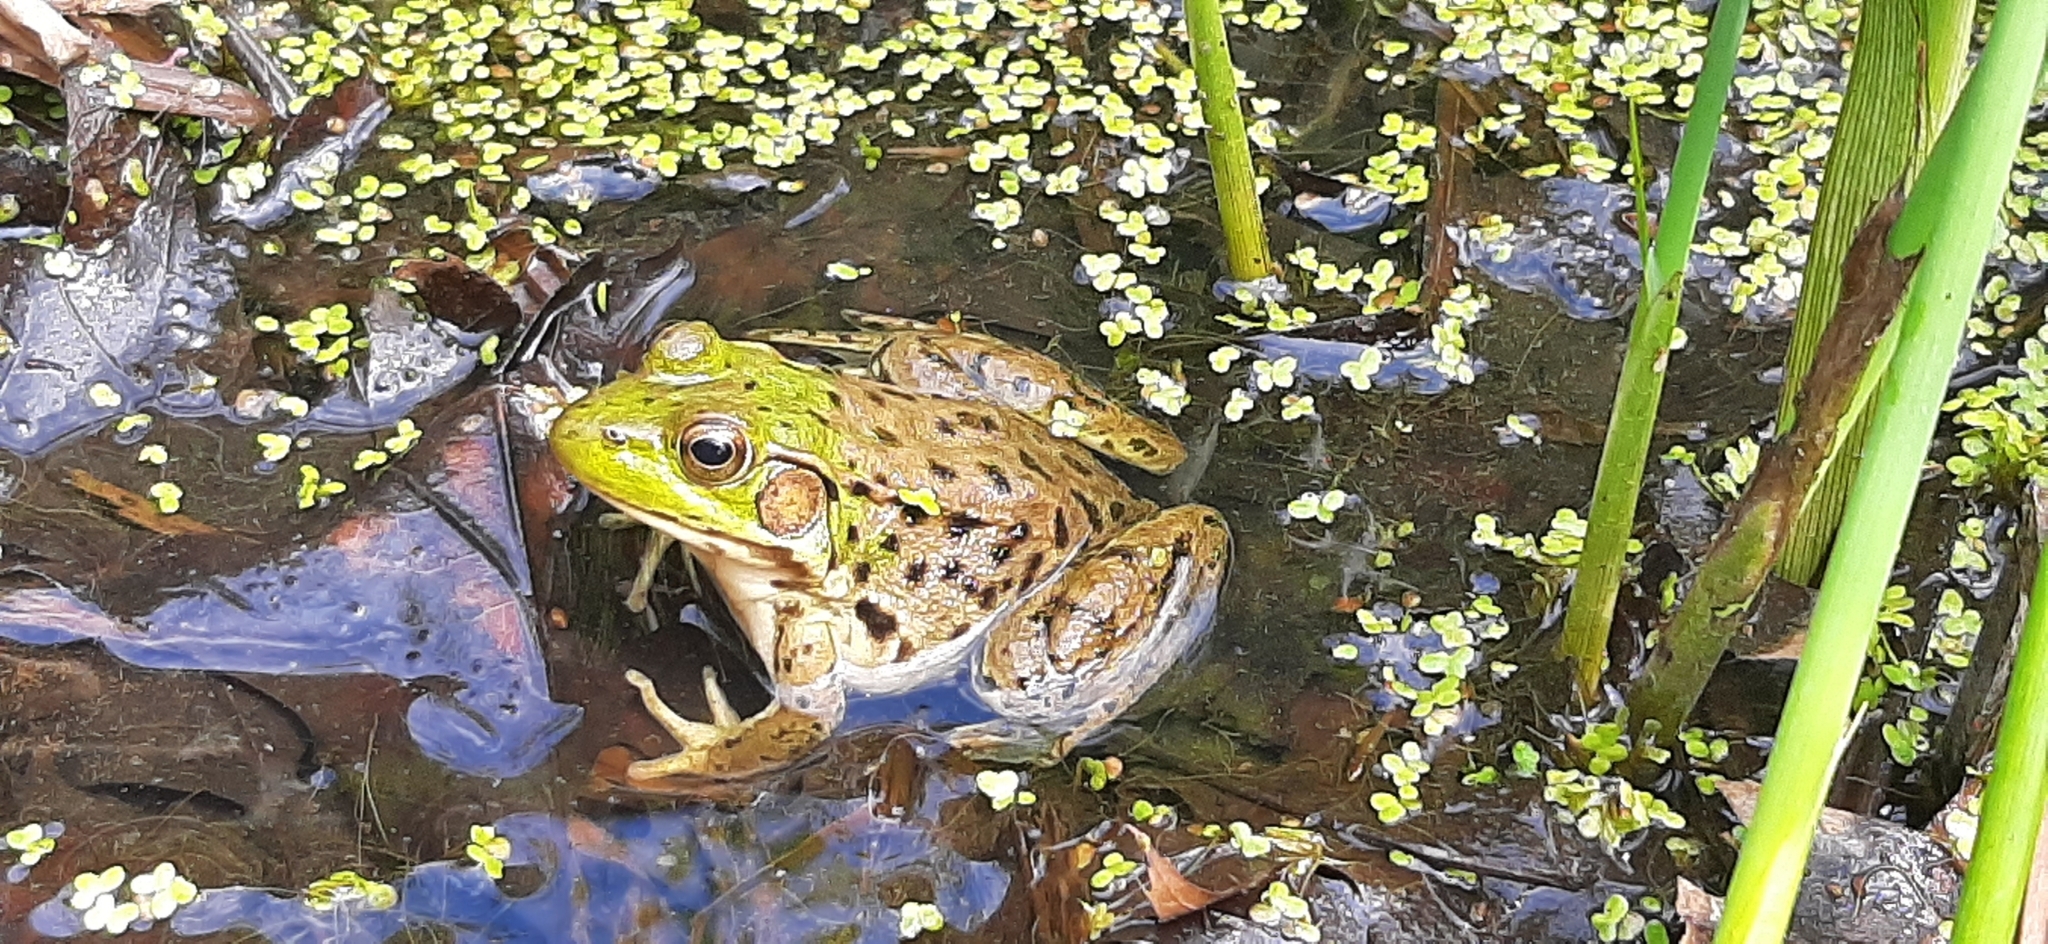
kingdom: Animalia
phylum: Chordata
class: Amphibia
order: Anura
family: Ranidae
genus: Lithobates
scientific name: Lithobates clamitans
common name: Green frog
